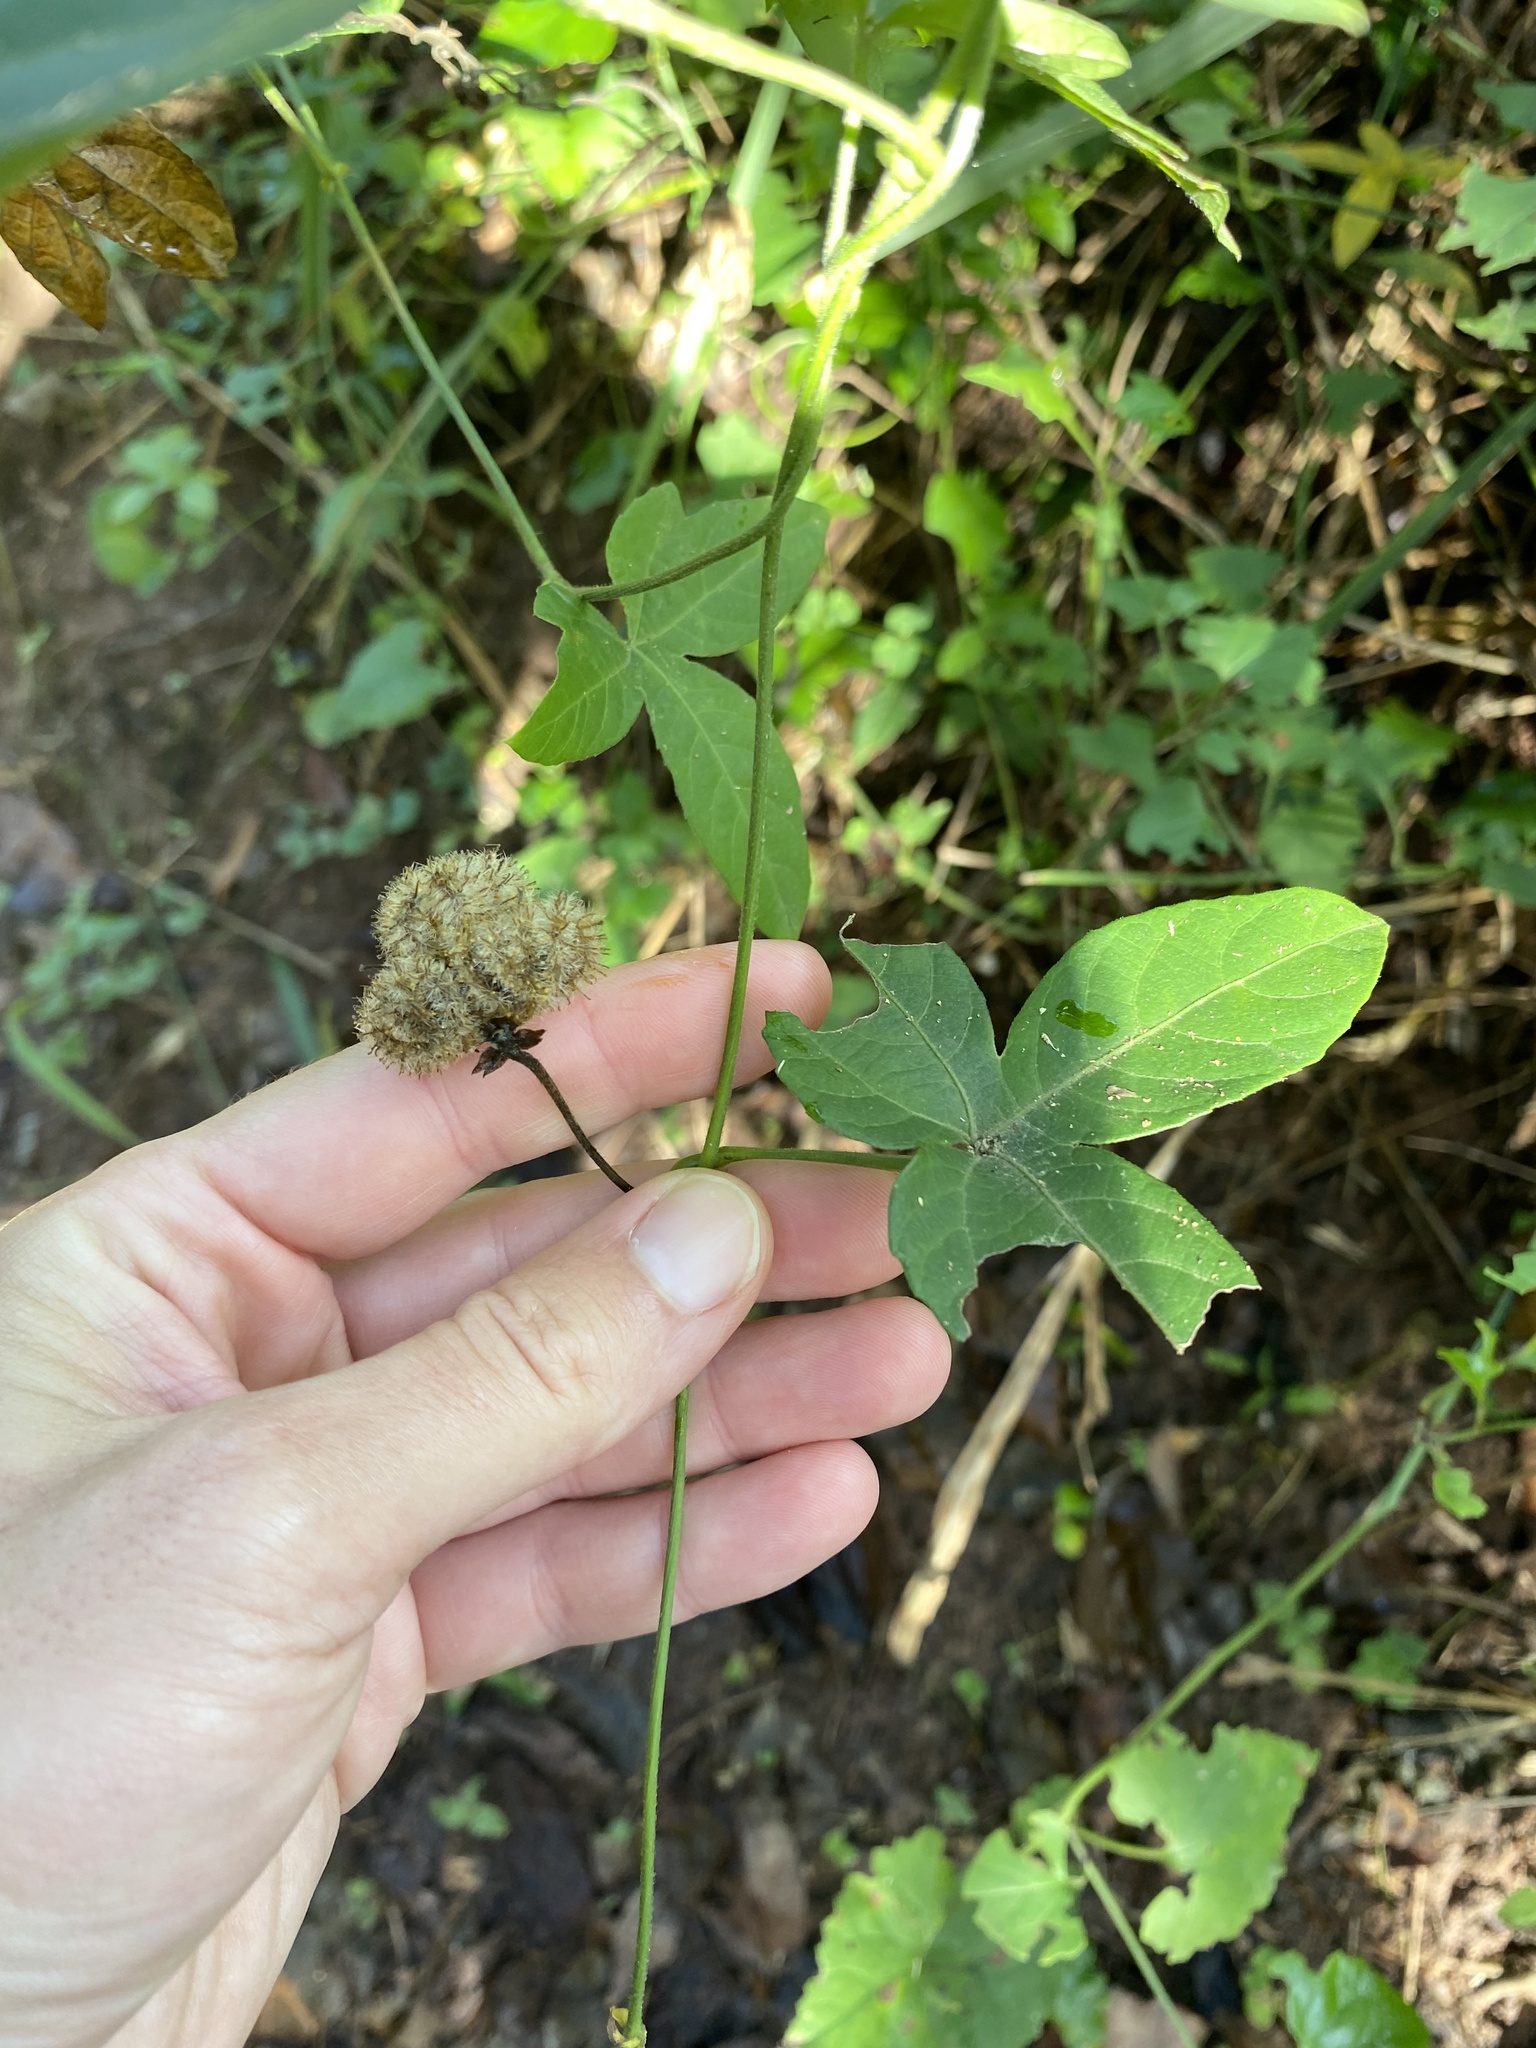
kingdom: Plantae
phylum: Tracheophyta
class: Magnoliopsida
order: Malpighiales
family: Euphorbiaceae
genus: Dalechampia
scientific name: Dalechampia capensis
